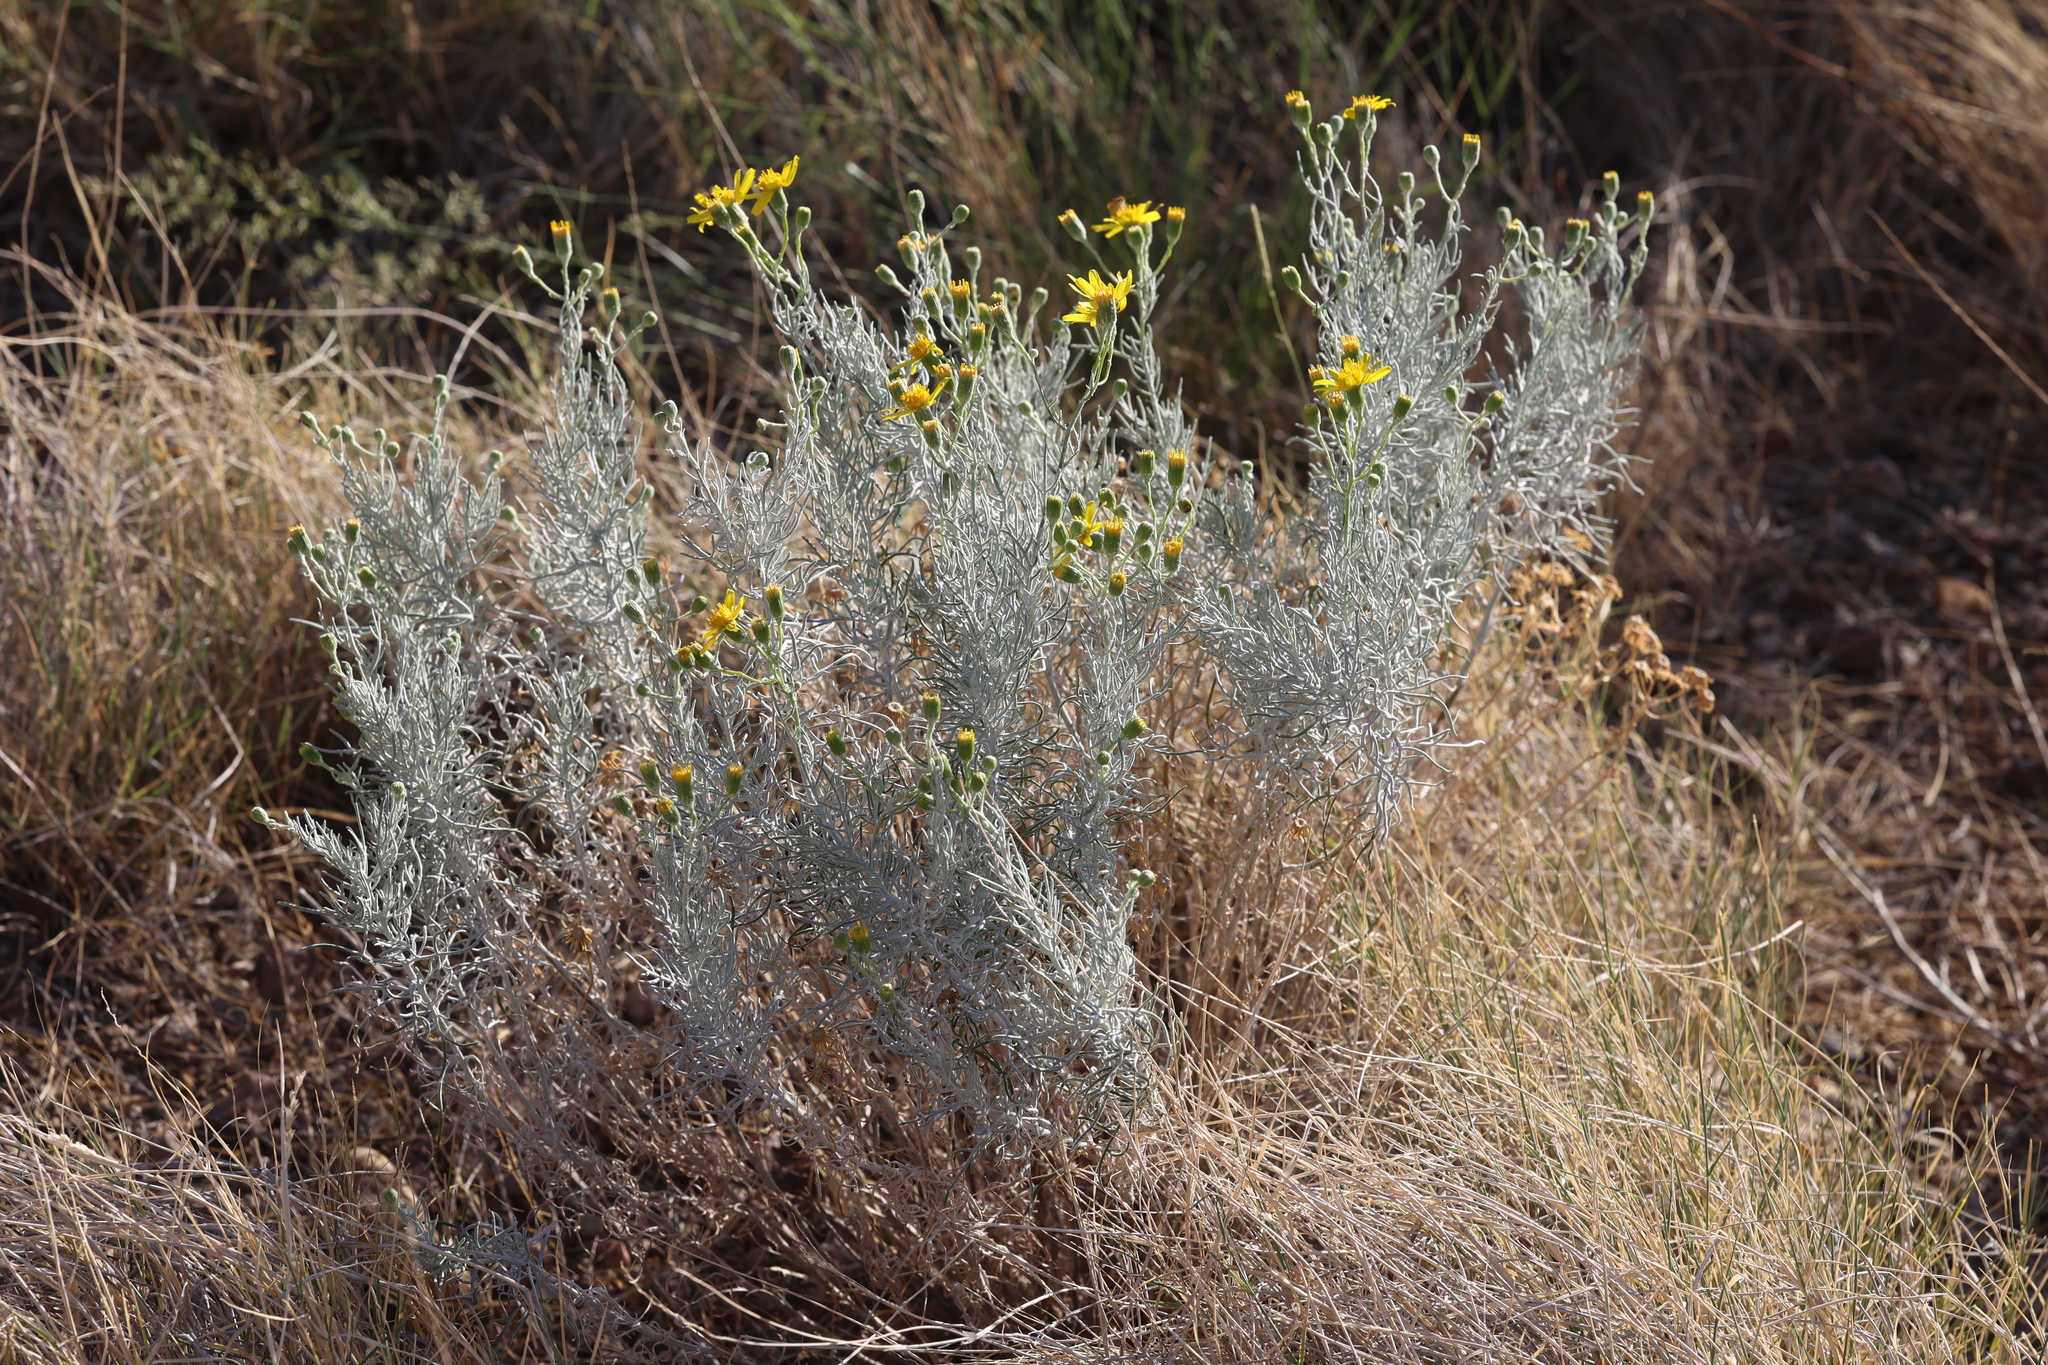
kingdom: Plantae
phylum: Tracheophyta
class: Magnoliopsida
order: Asterales
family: Asteraceae
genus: Senecio
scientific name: Senecio flaccidus
